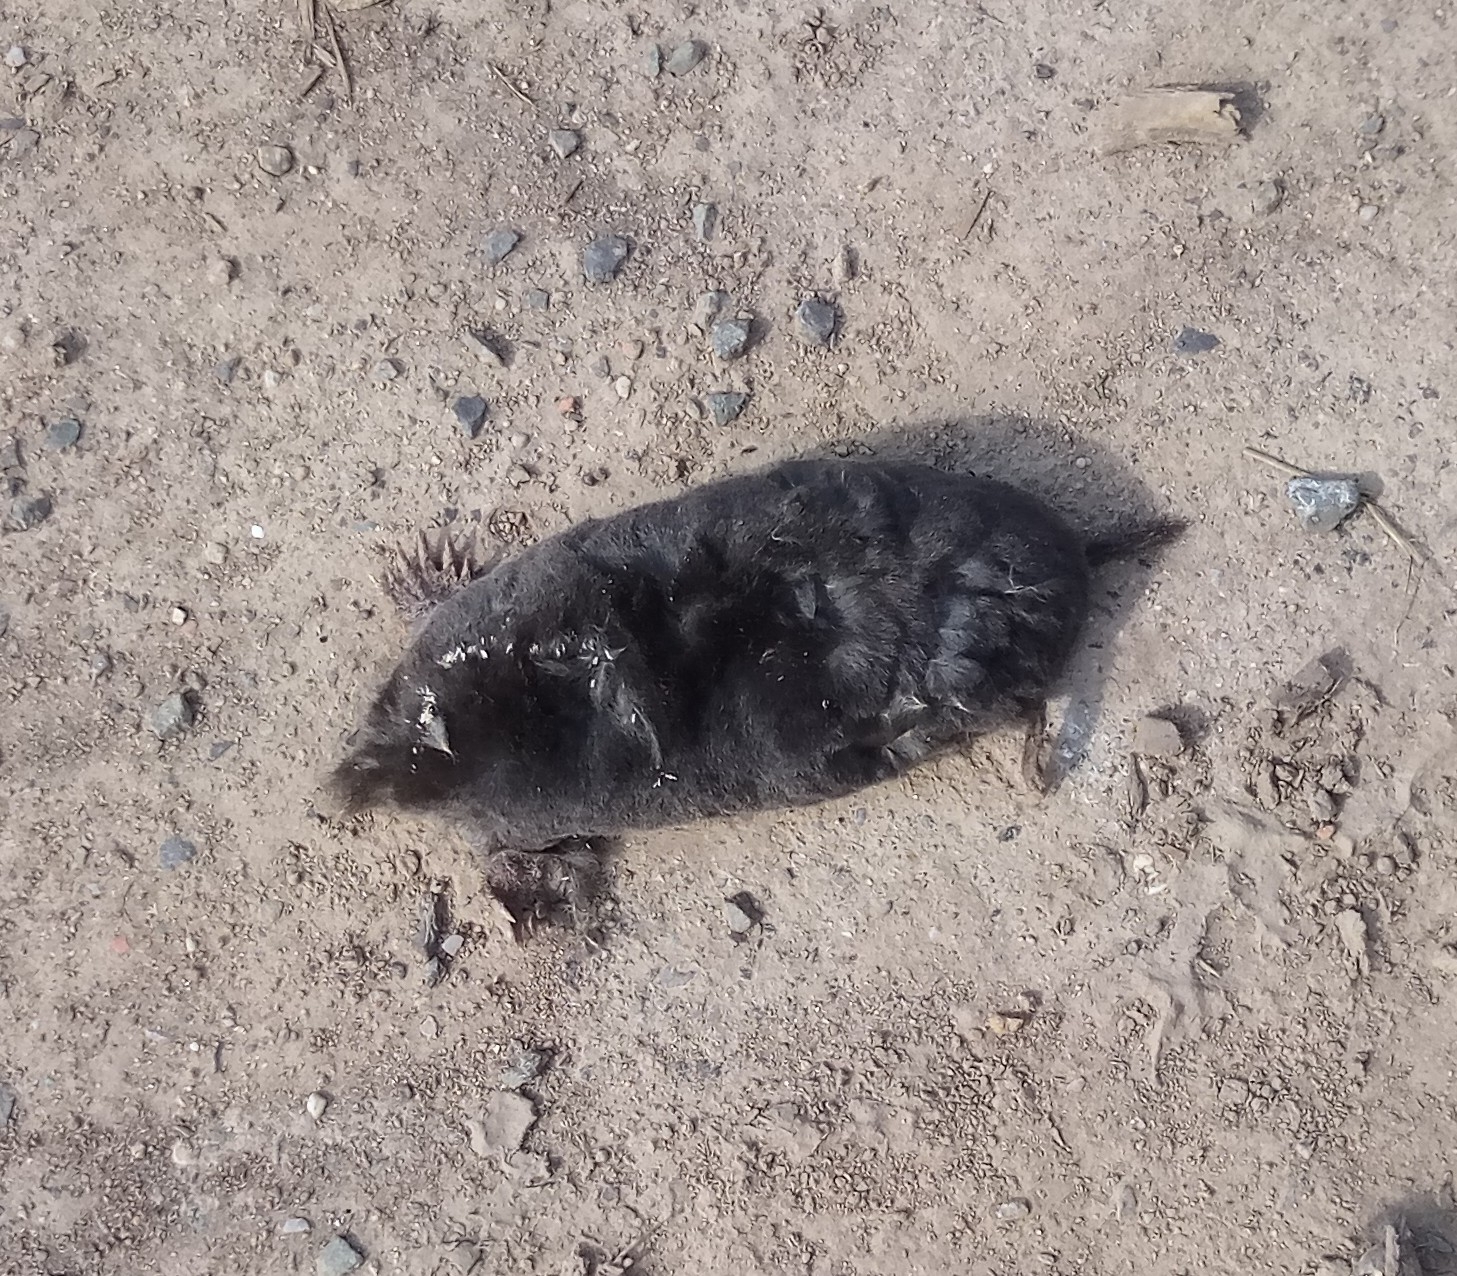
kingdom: Animalia
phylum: Chordata
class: Mammalia
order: Soricomorpha
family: Talpidae
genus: Talpa
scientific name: Talpa europaea
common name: European mole
